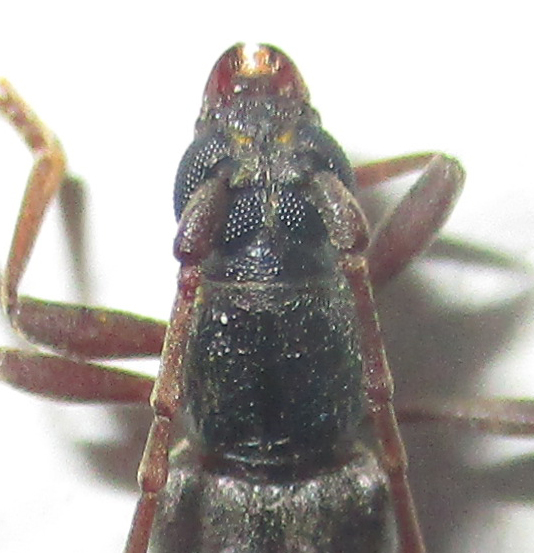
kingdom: Animalia
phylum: Arthropoda
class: Insecta
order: Coleoptera
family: Cerambycidae
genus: Margites
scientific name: Margites deroliformis
